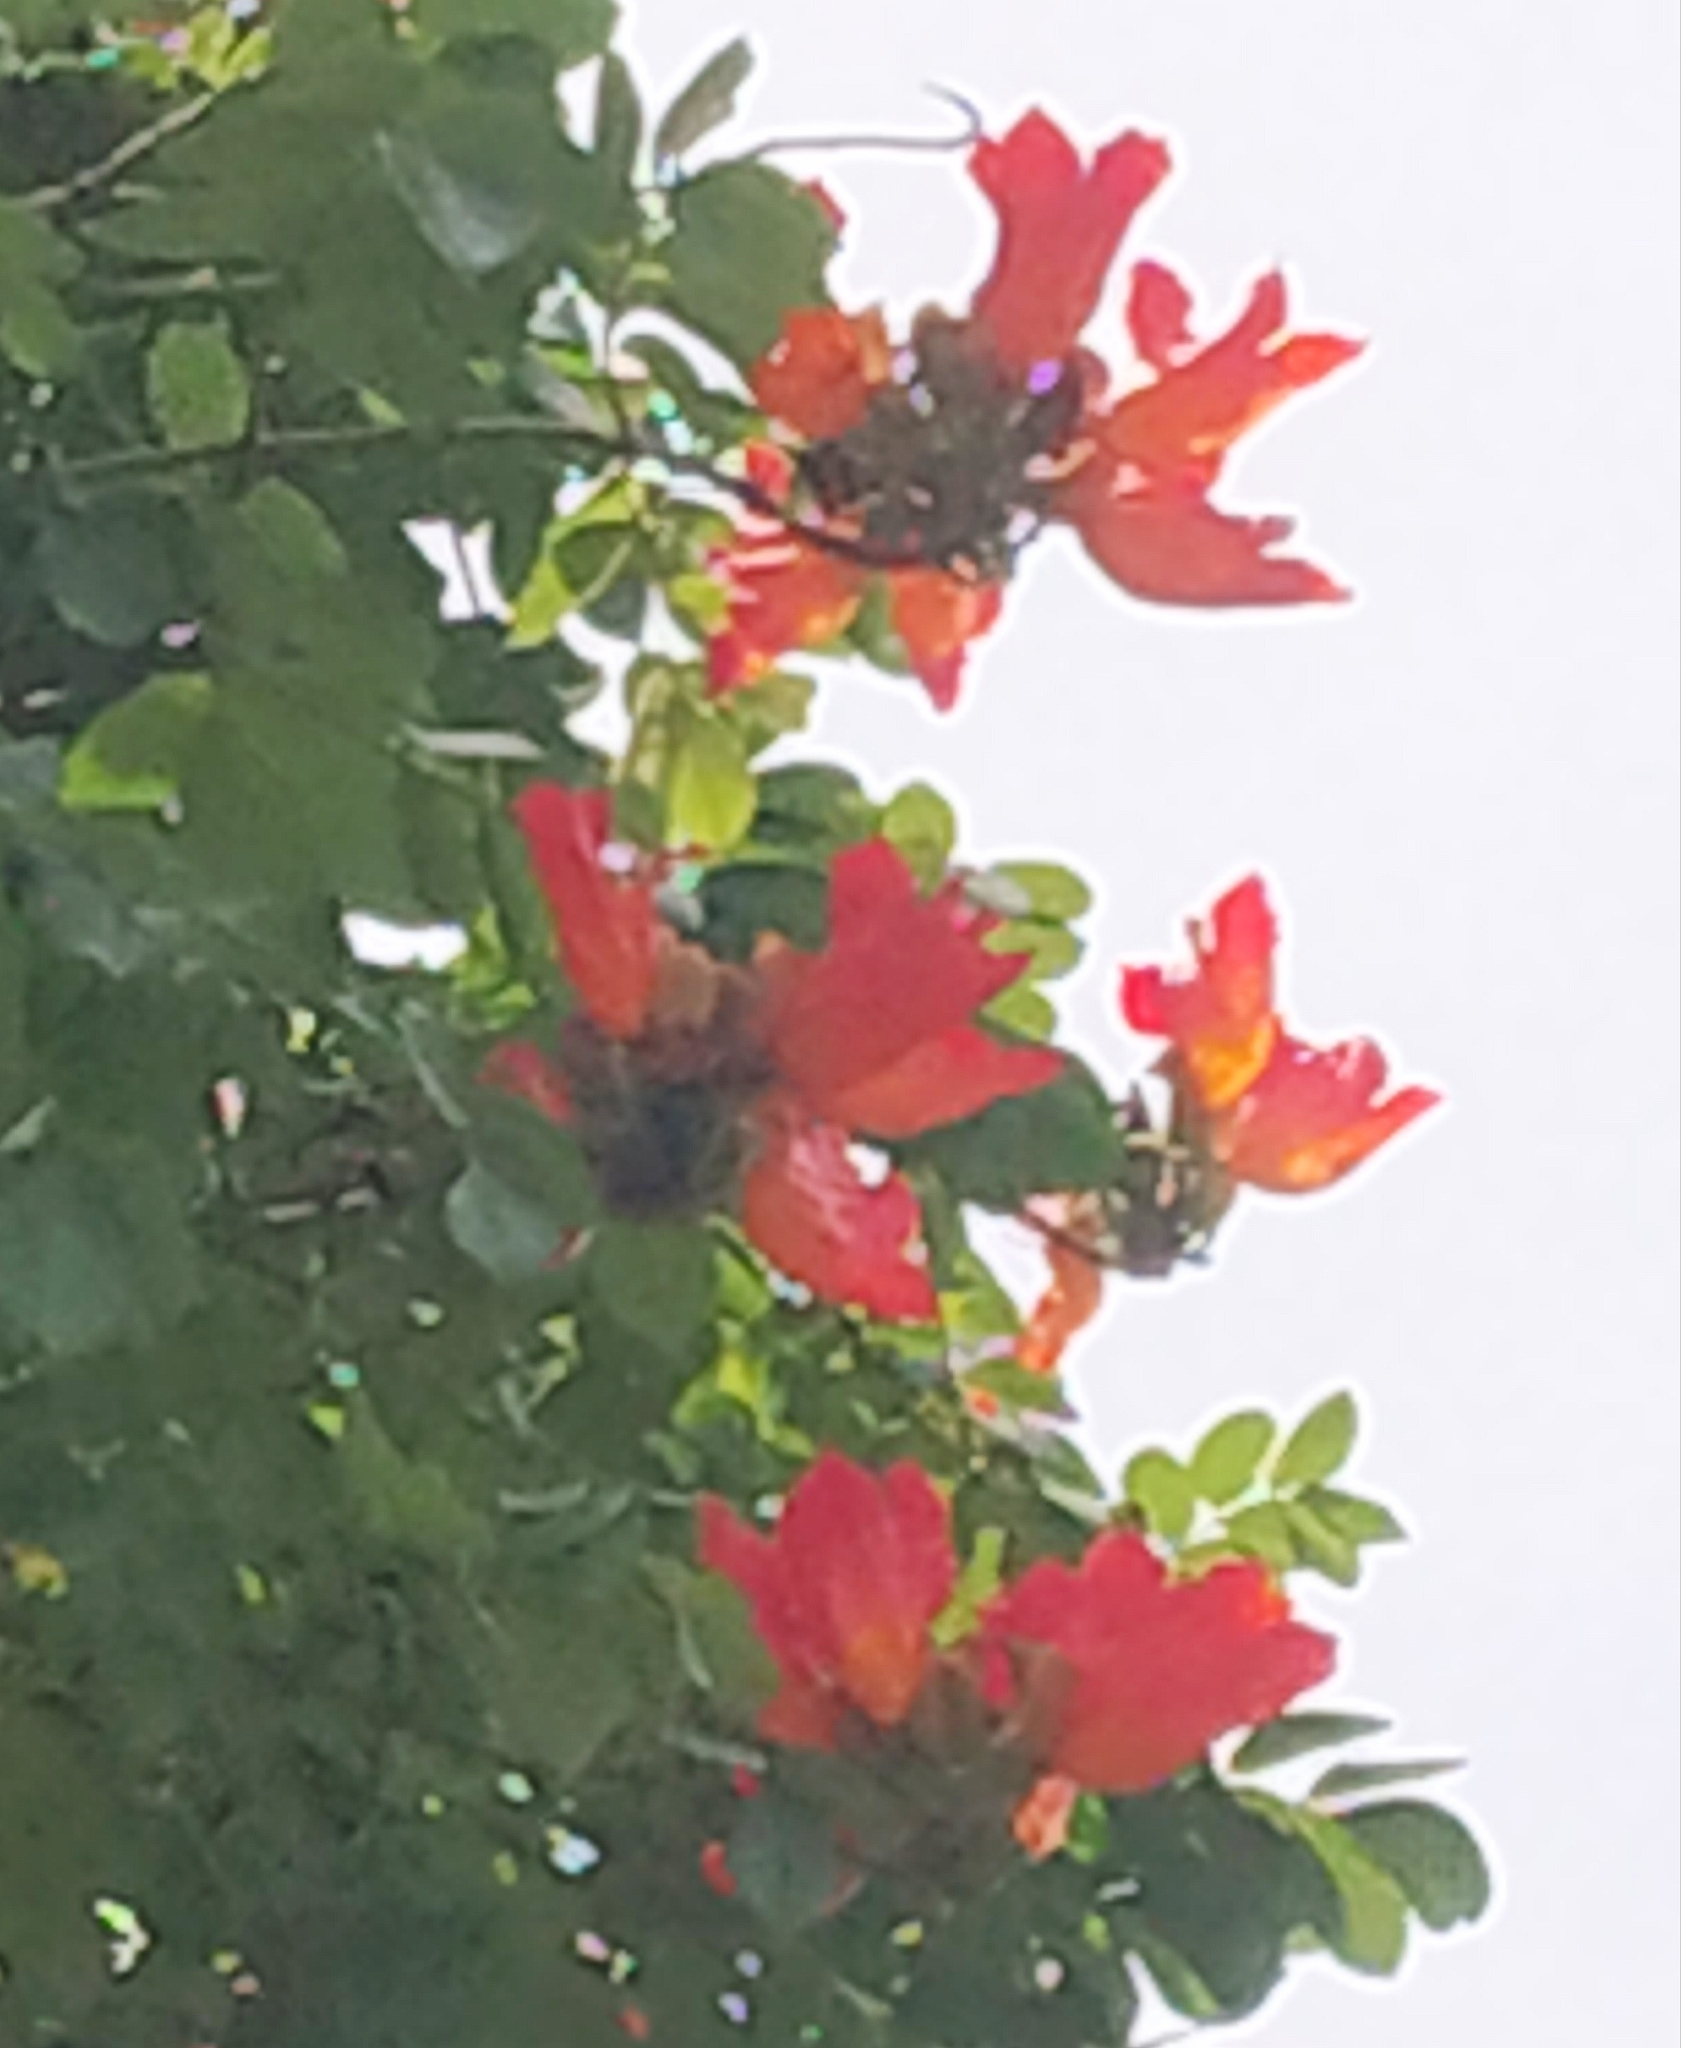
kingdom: Plantae
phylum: Tracheophyta
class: Magnoliopsida
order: Lamiales
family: Bignoniaceae
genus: Spathodea
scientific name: Spathodea campanulata
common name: African tuliptree
